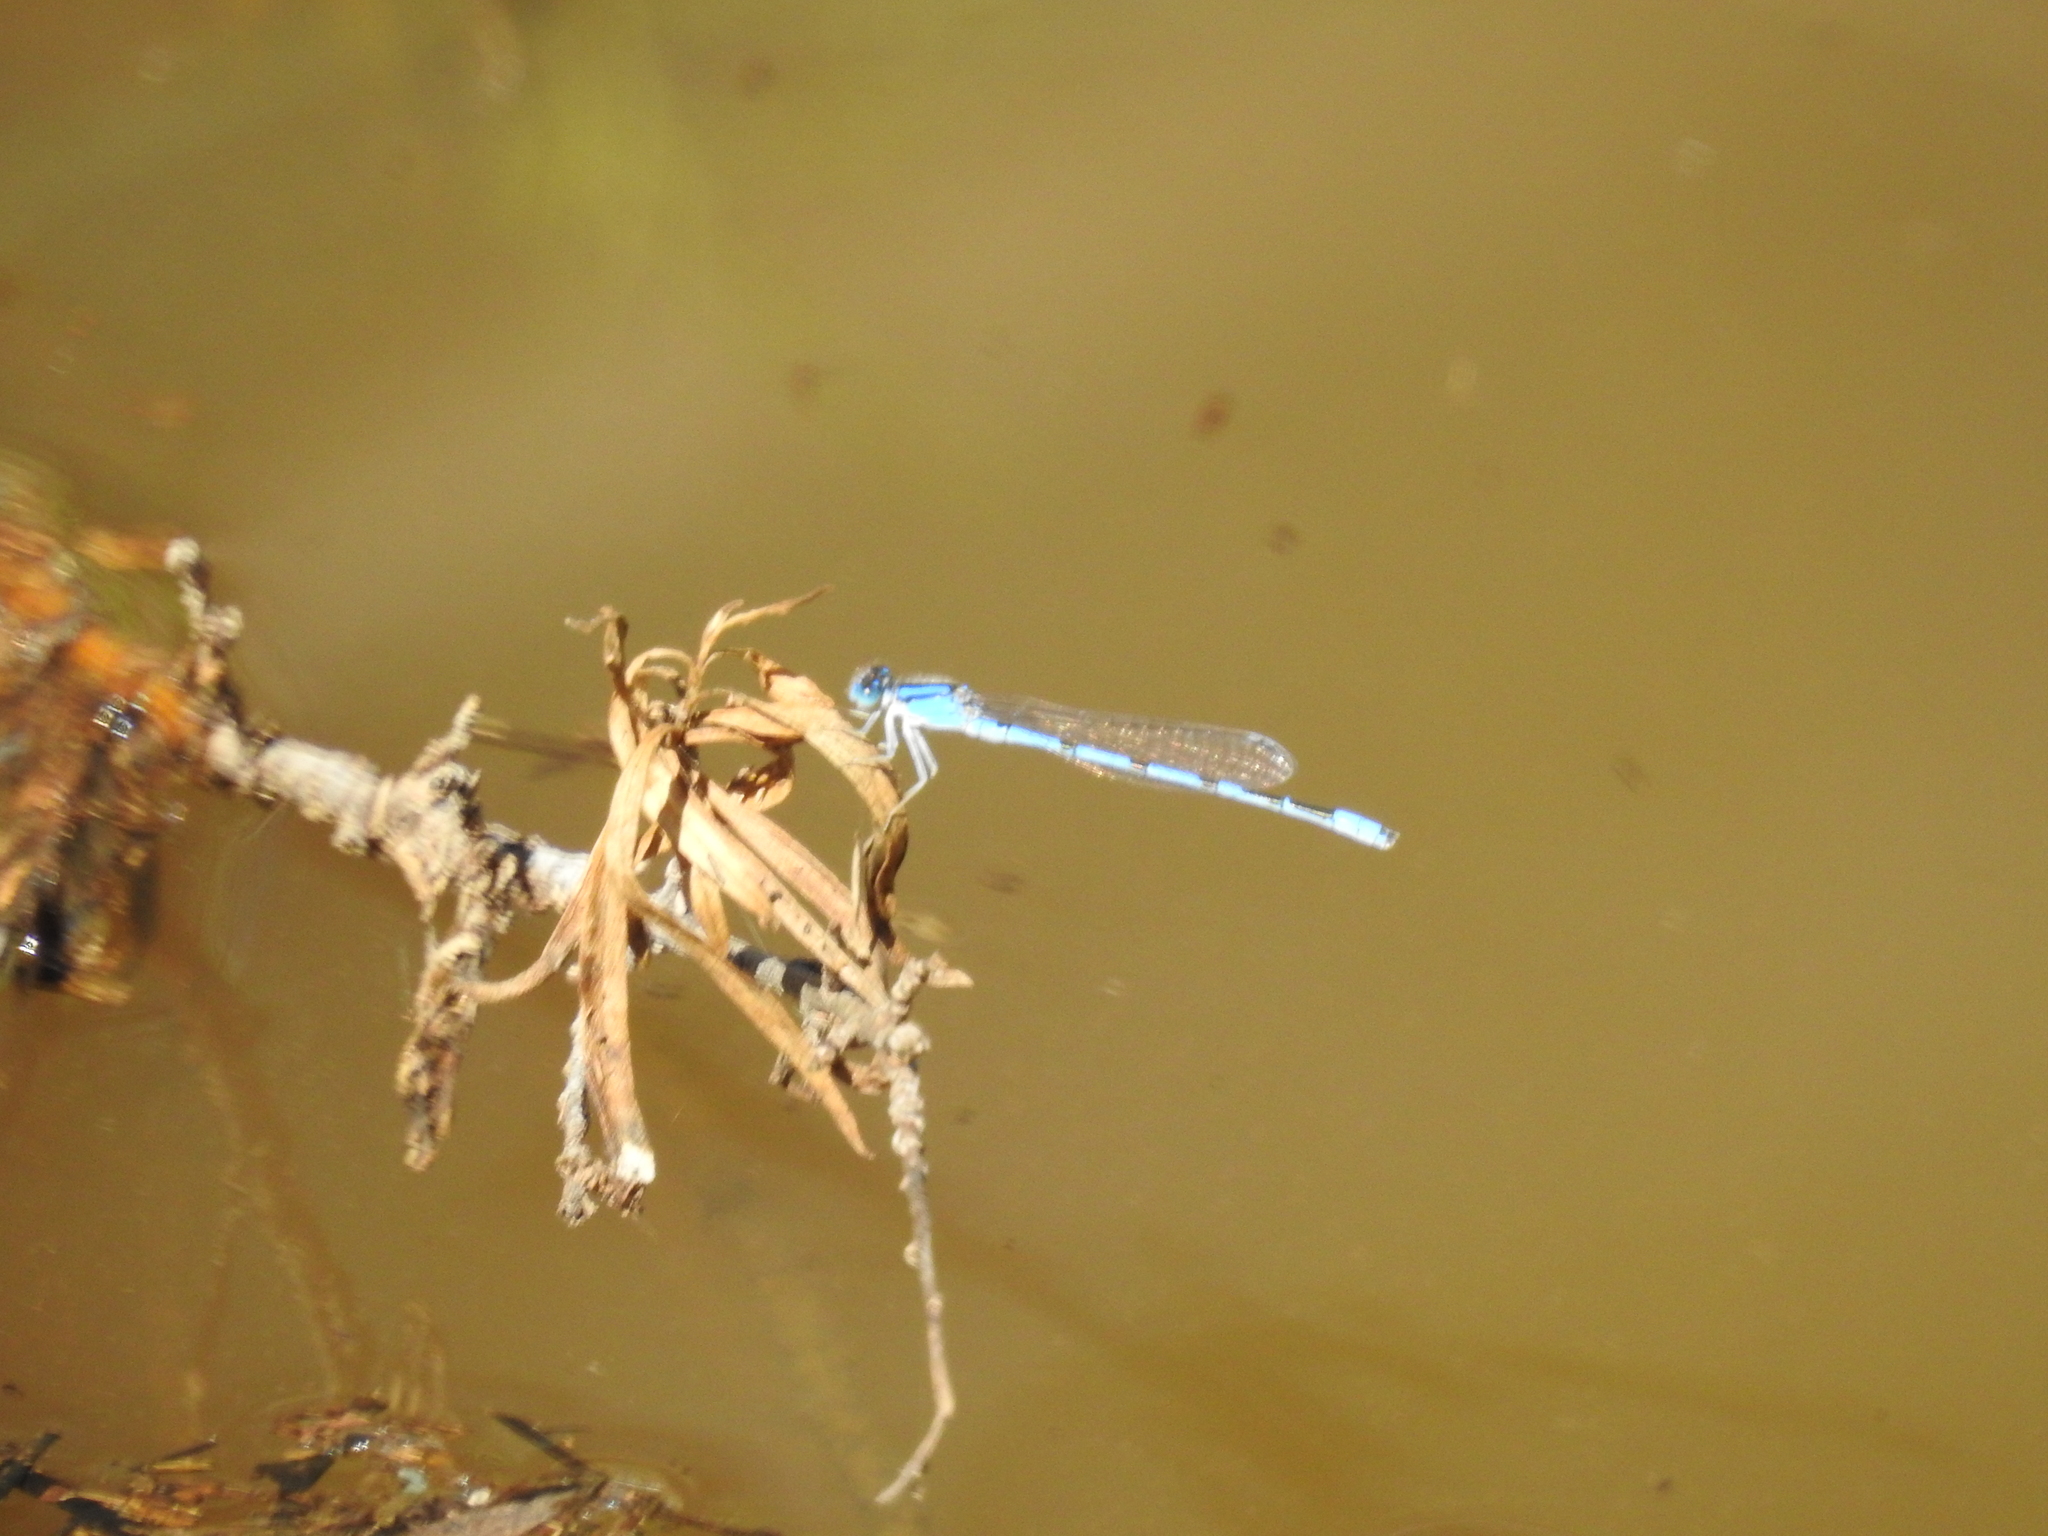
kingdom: Animalia
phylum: Arthropoda
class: Insecta
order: Odonata
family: Coenagrionidae
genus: Enallagma
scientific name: Enallagma civile
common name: Damselfly
